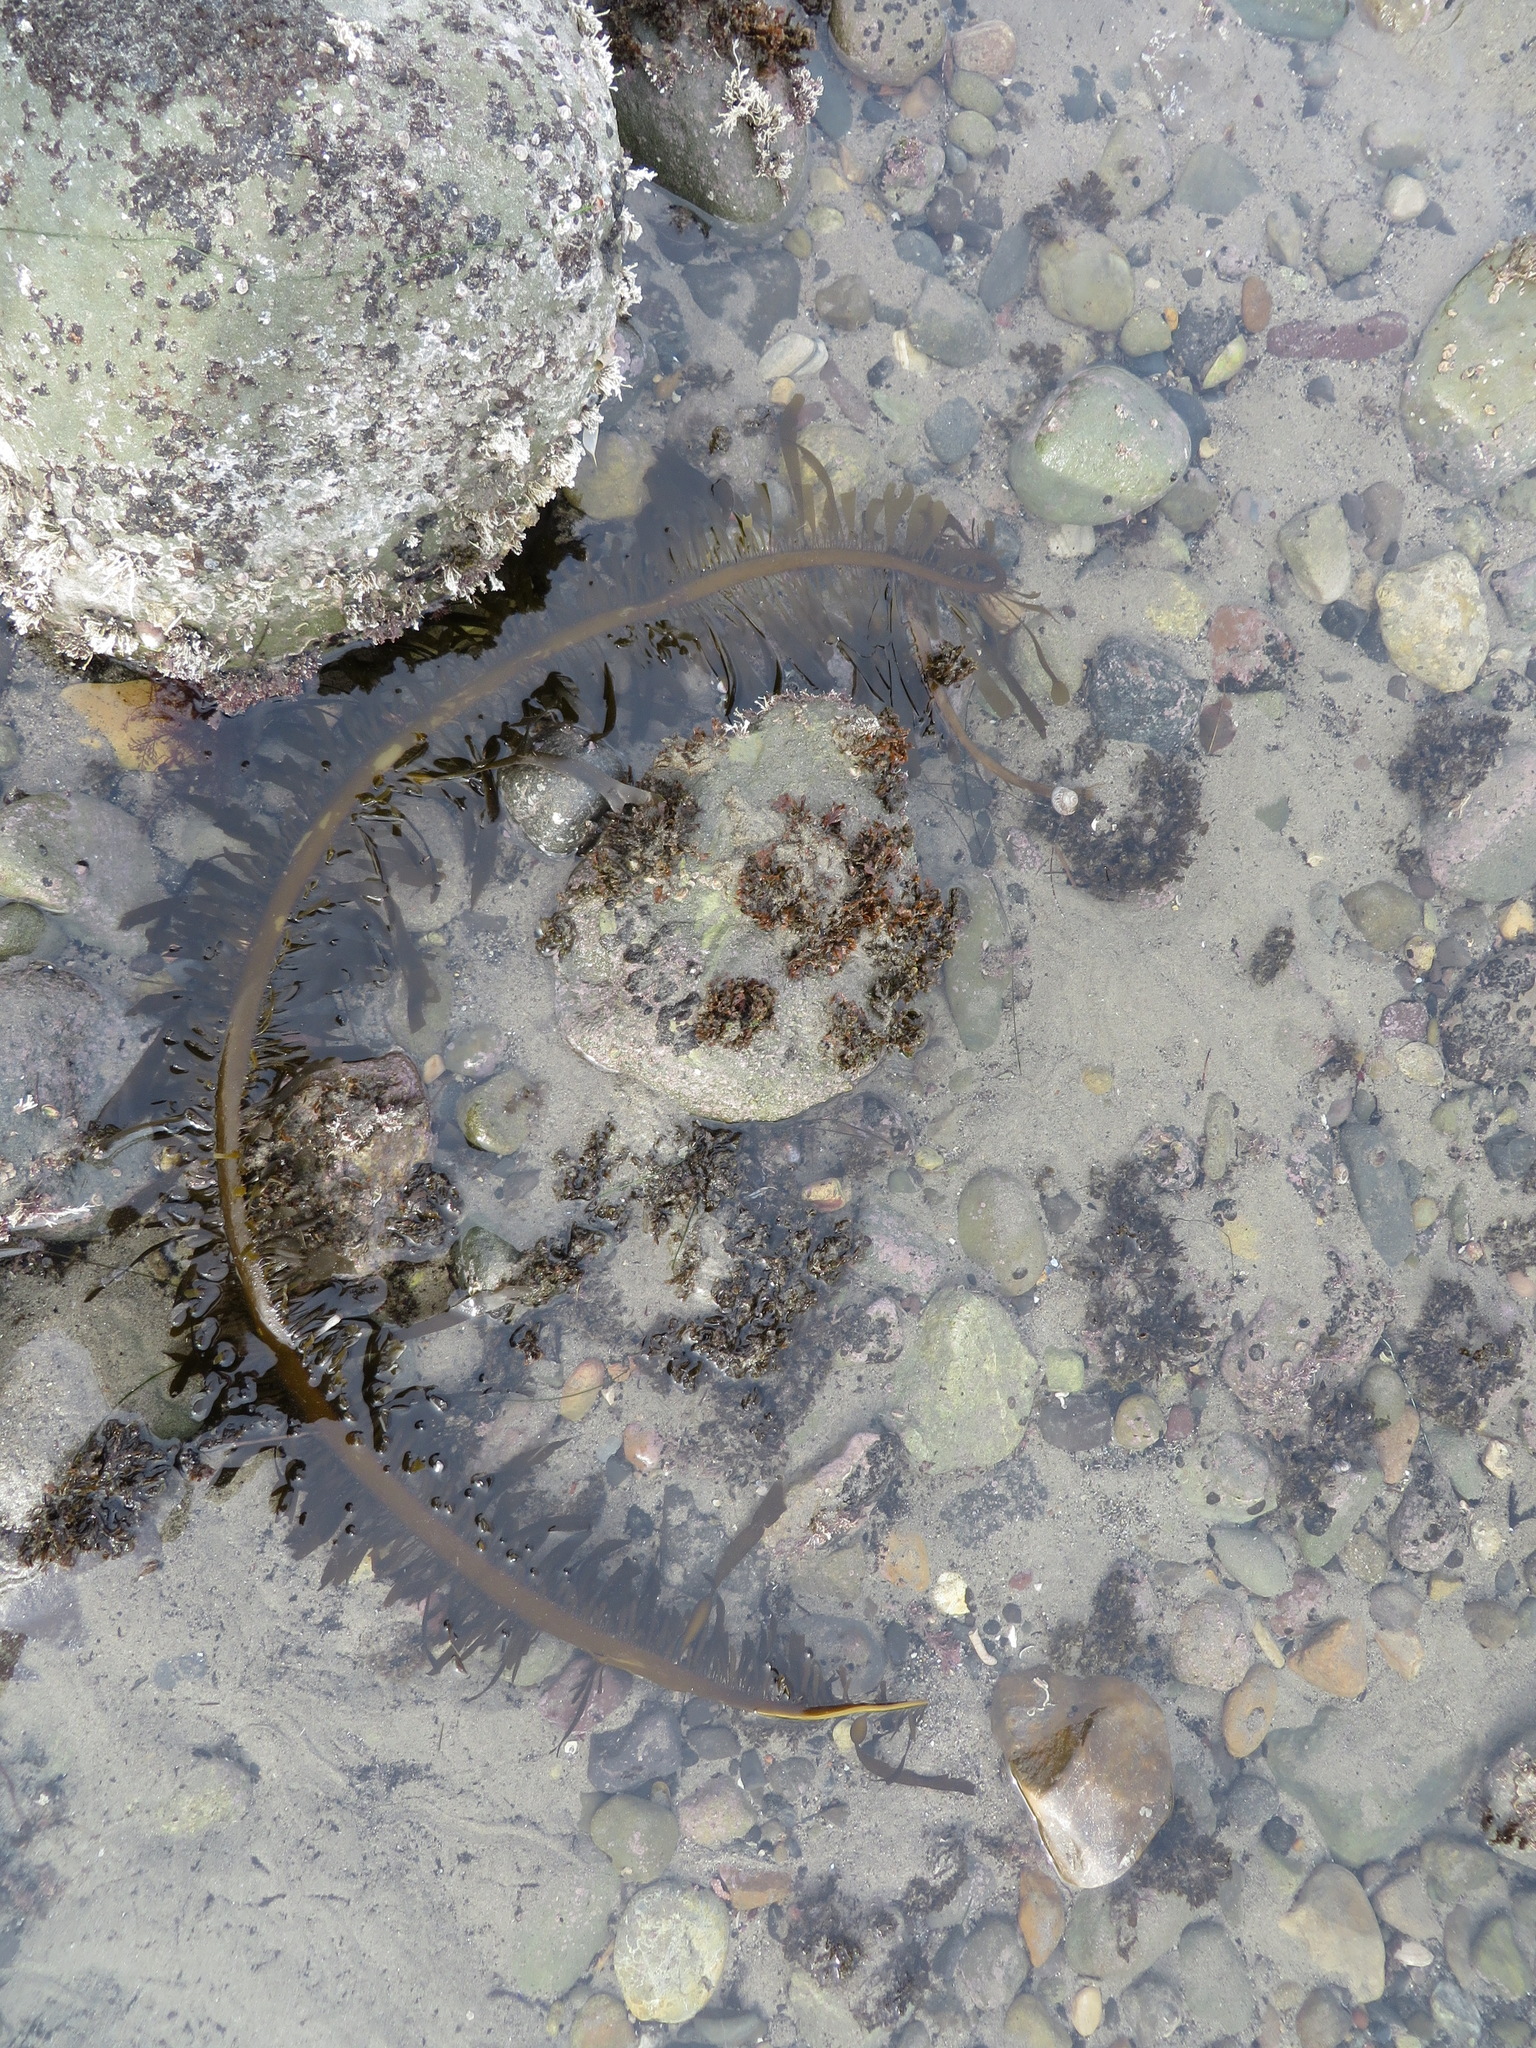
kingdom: Chromista
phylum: Ochrophyta
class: Phaeophyceae
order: Laminariales
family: Lessoniaceae
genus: Egregia
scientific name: Egregia menziesii
